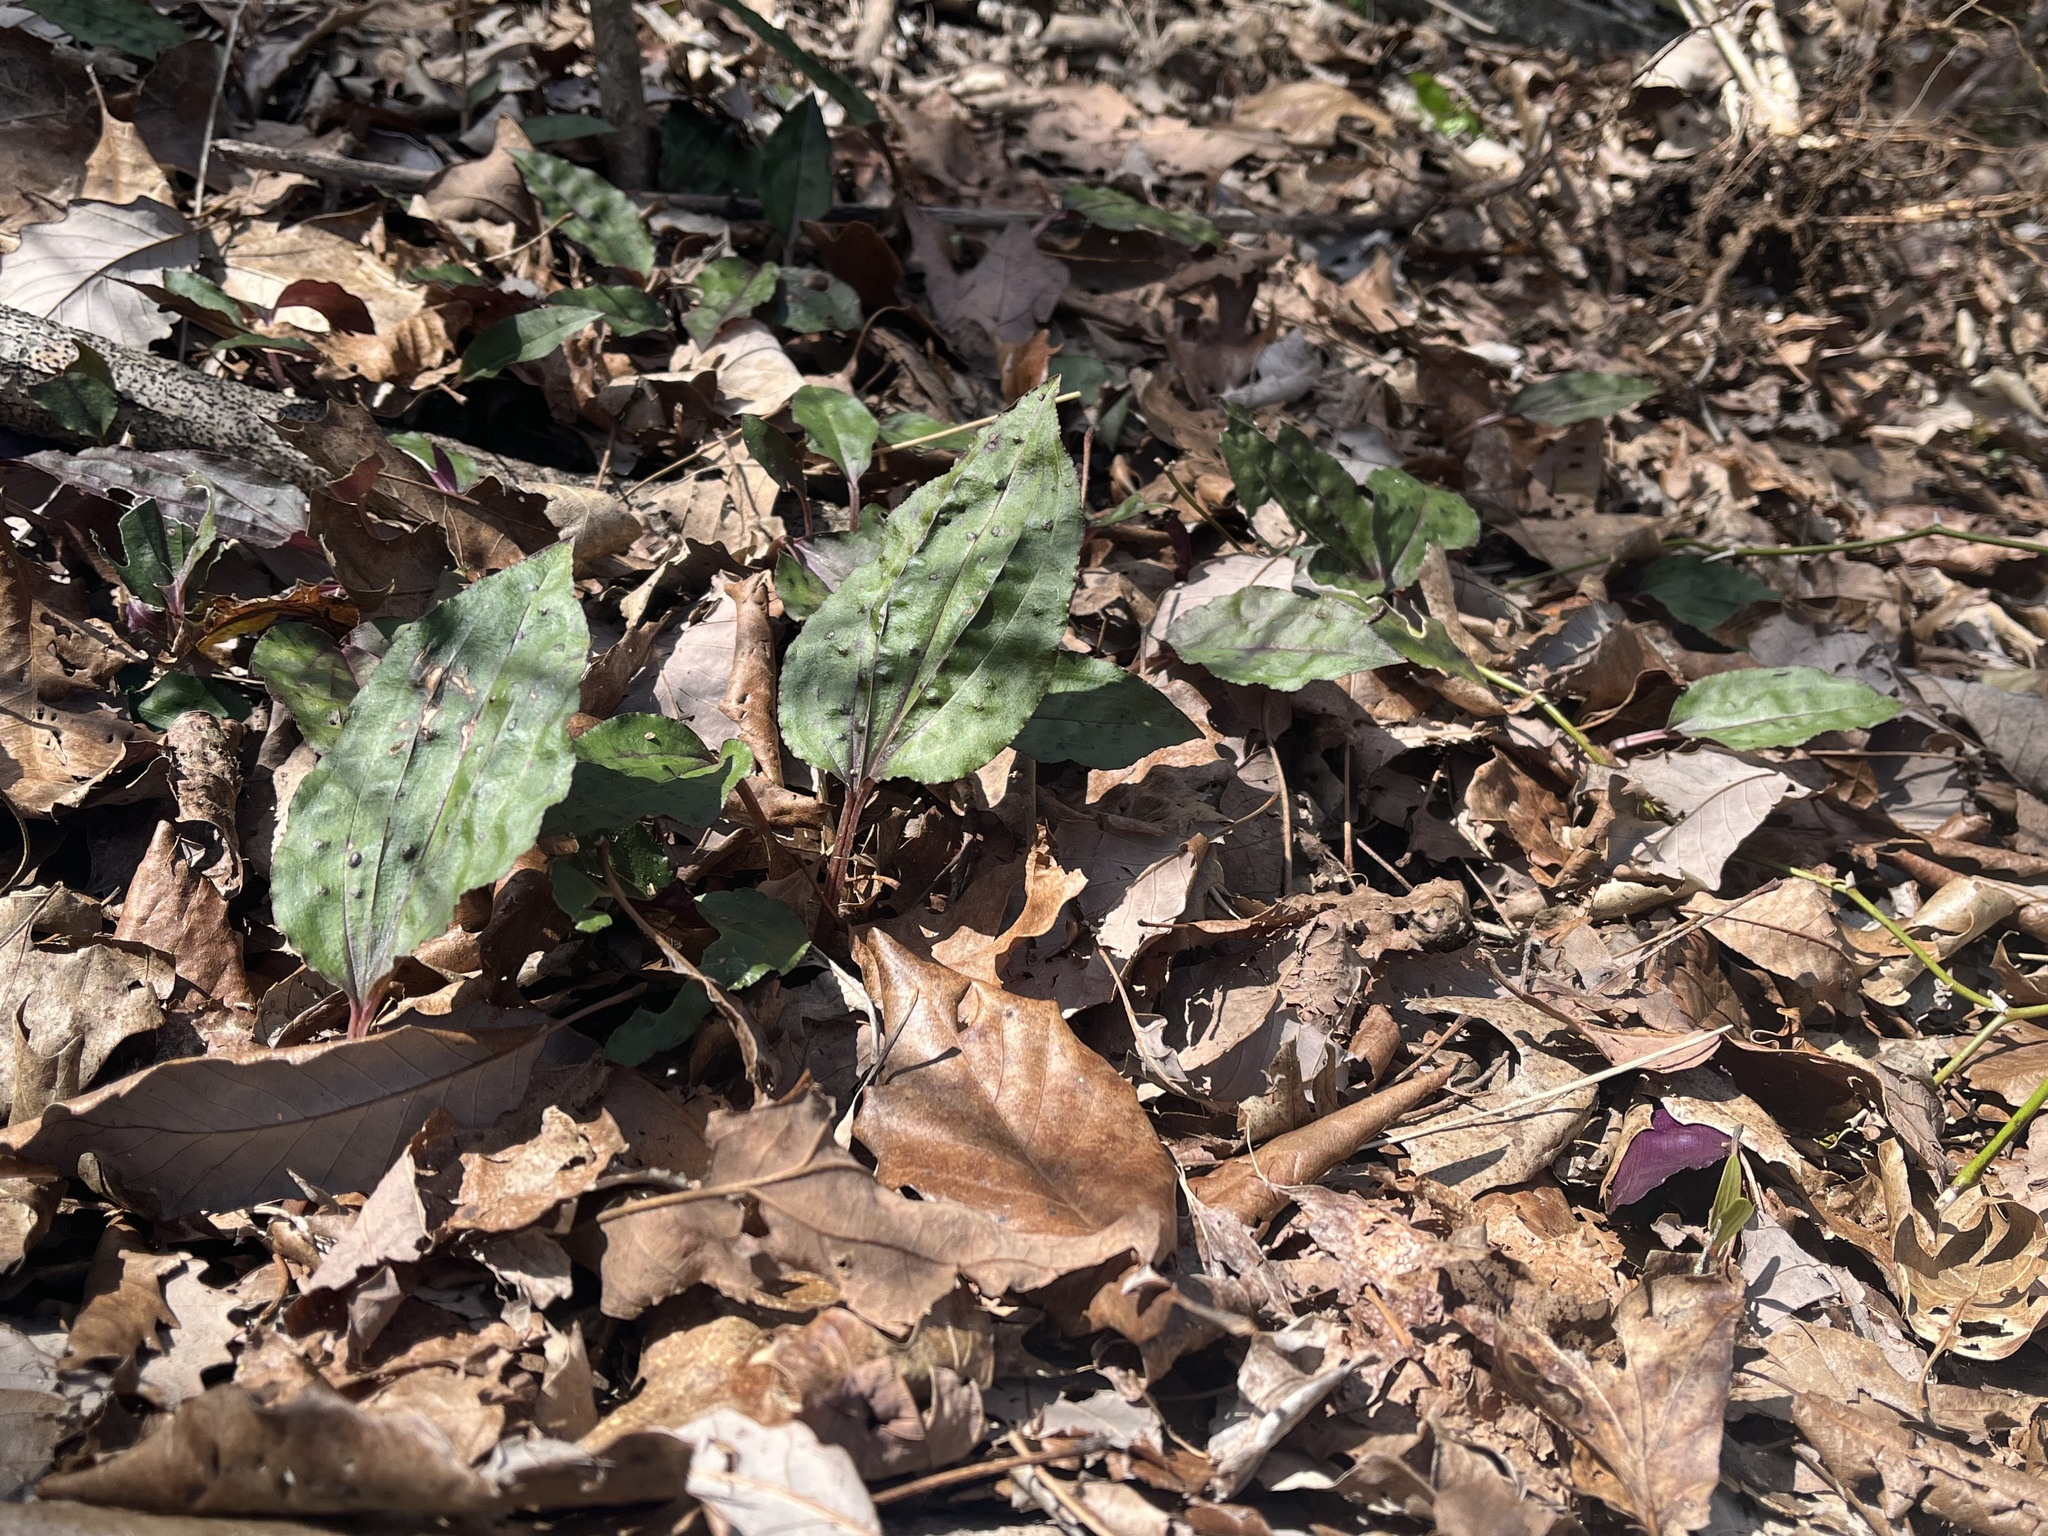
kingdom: Plantae
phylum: Tracheophyta
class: Liliopsida
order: Asparagales
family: Orchidaceae
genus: Tipularia
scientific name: Tipularia discolor
